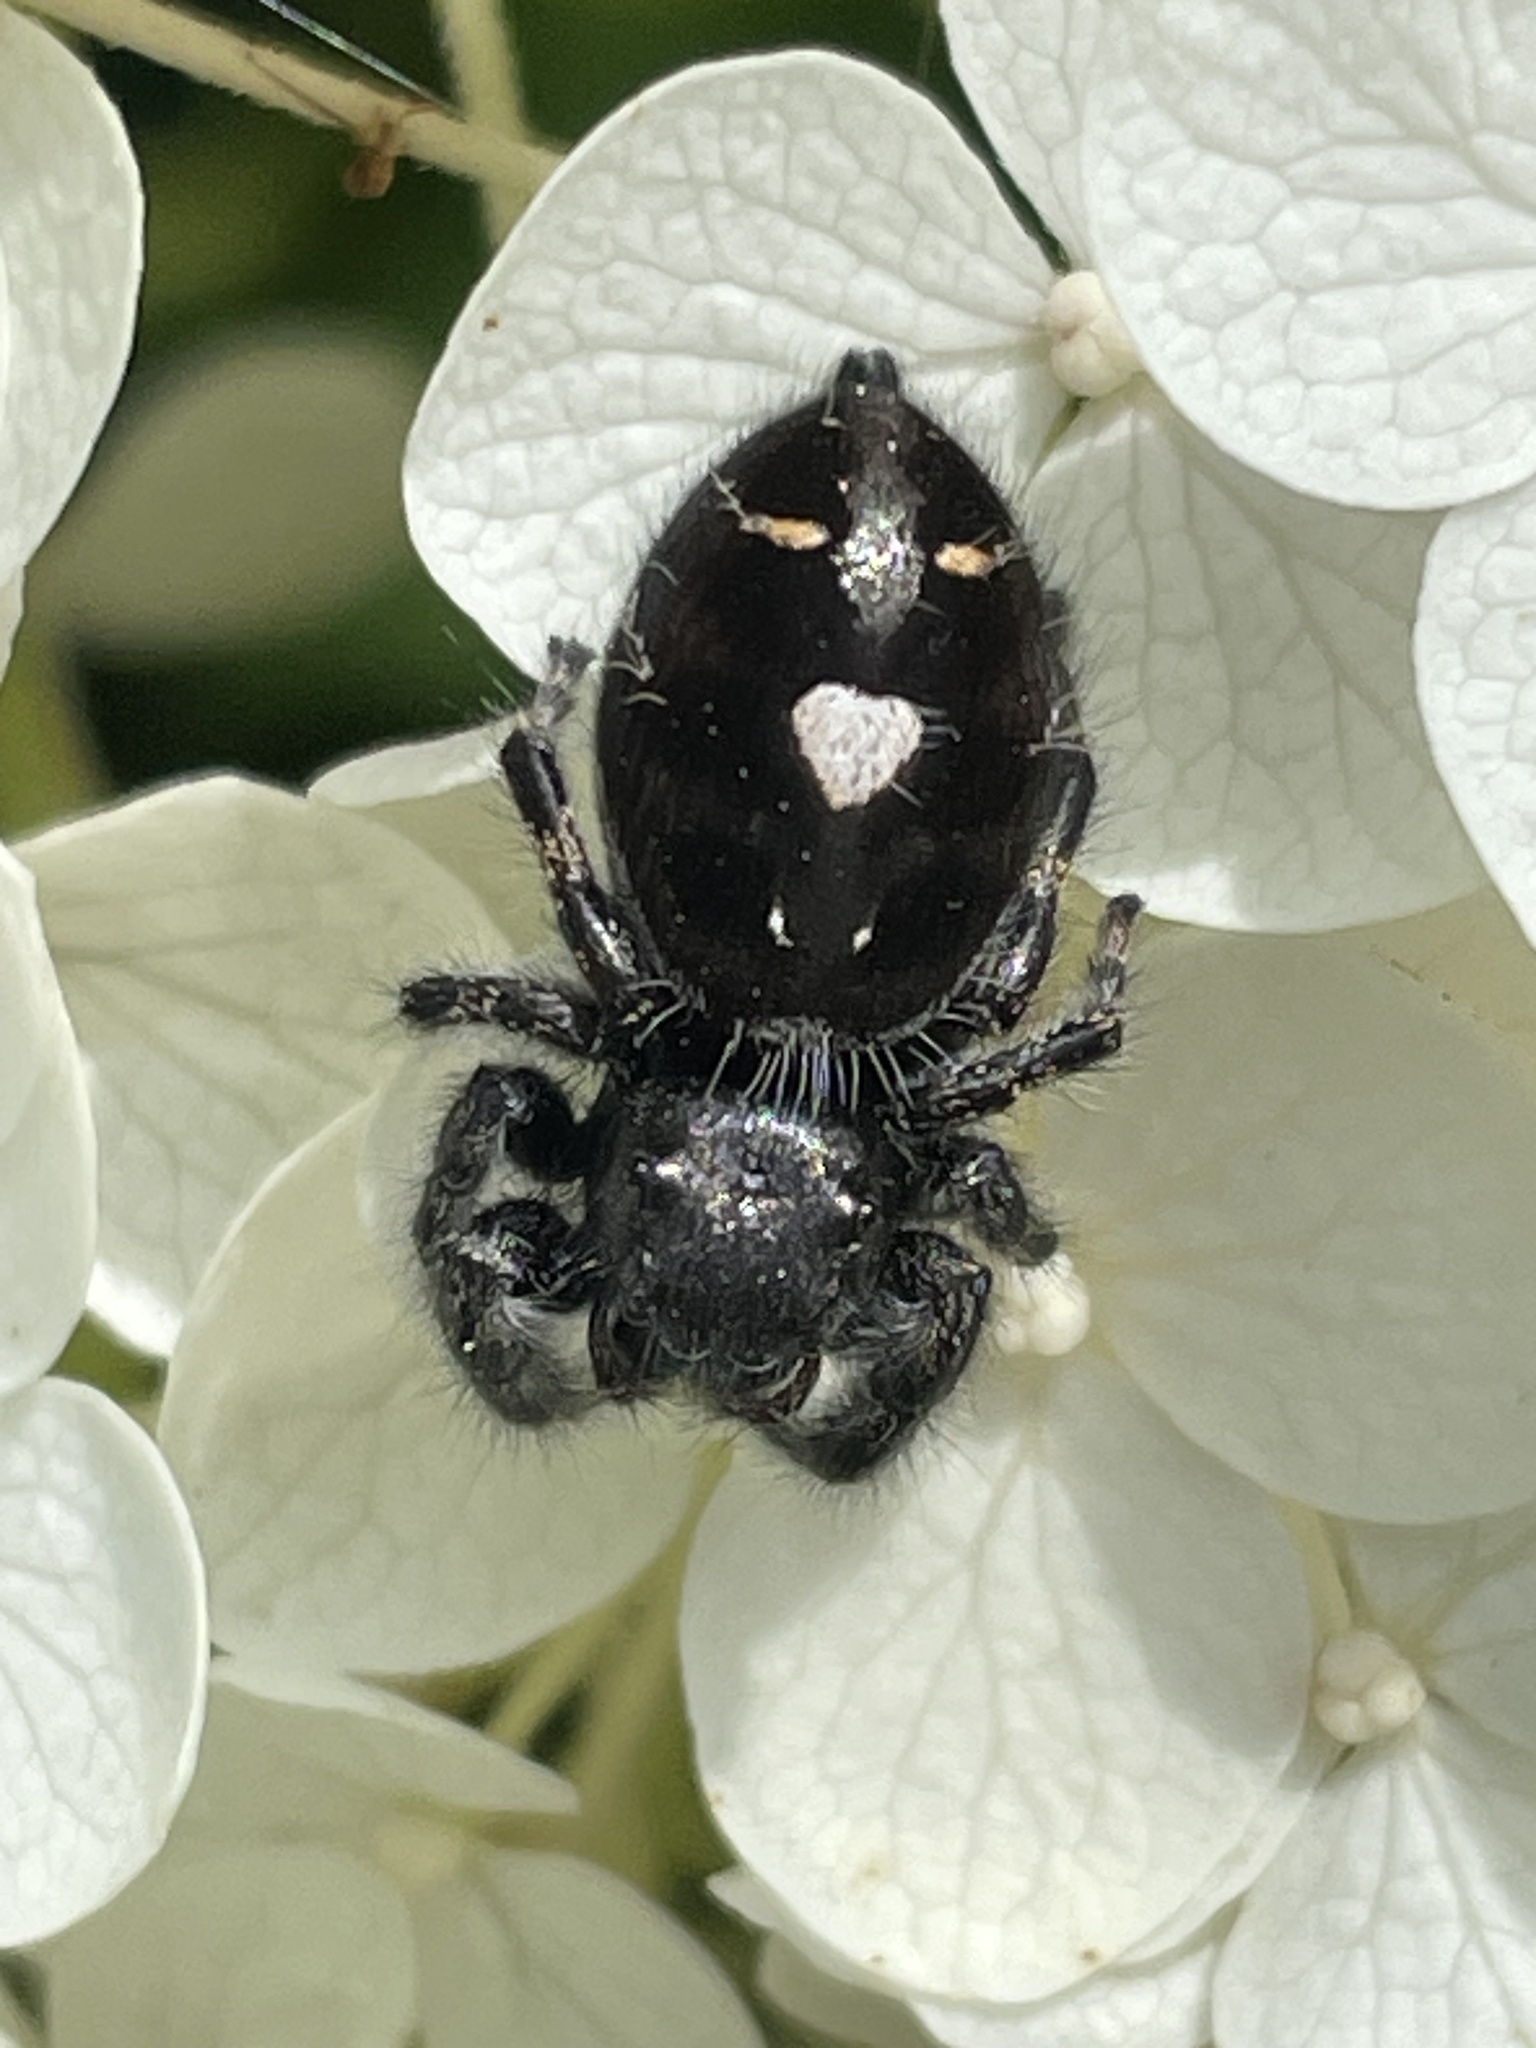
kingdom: Animalia
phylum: Arthropoda
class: Arachnida
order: Araneae
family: Salticidae
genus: Phidippus
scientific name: Phidippus audax
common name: Bold jumper
